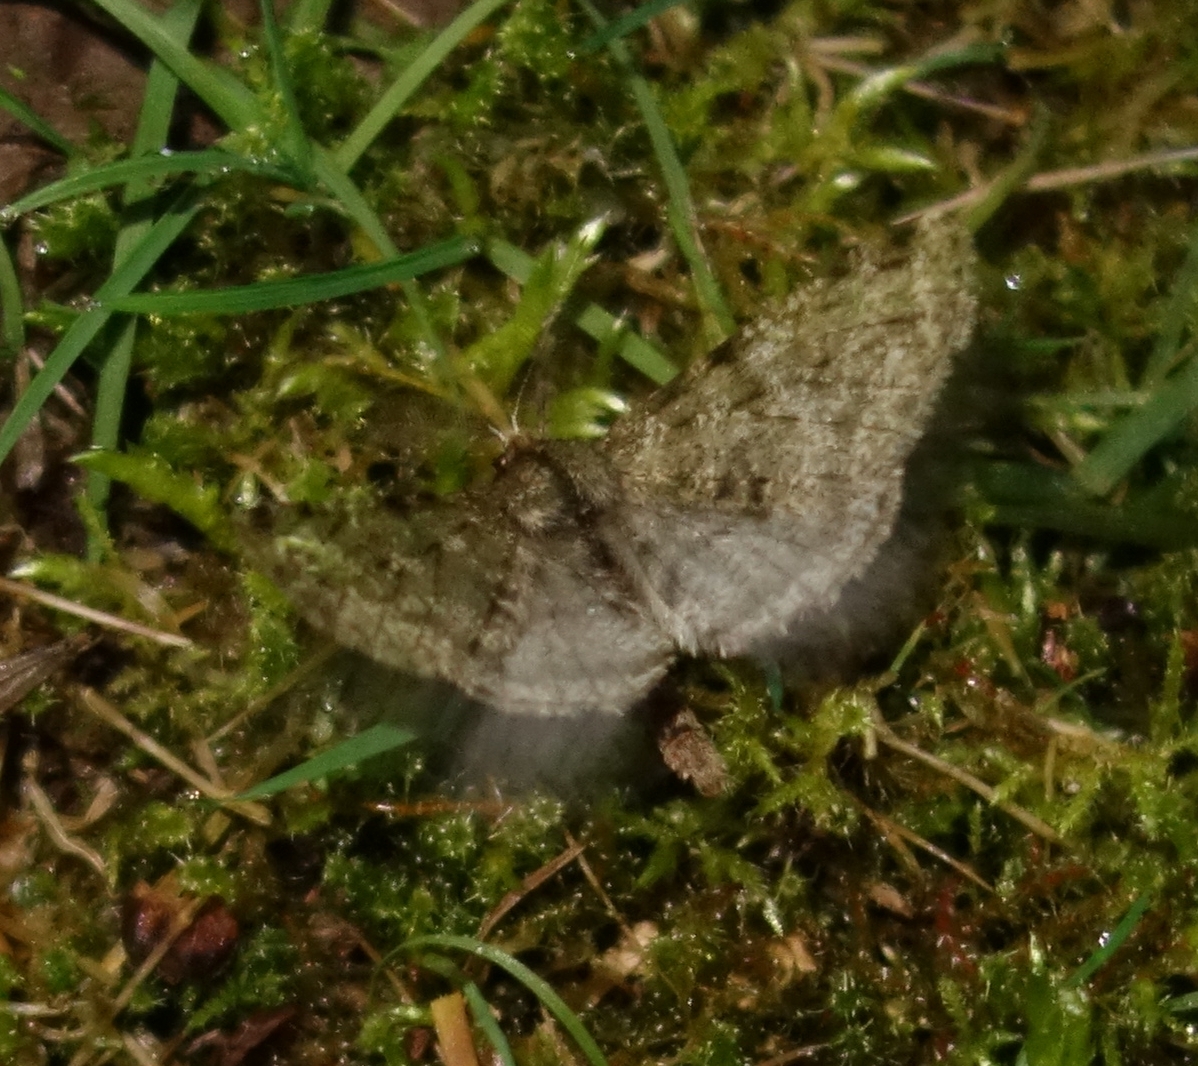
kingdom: Animalia
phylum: Arthropoda
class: Insecta
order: Lepidoptera
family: Geometridae
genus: Phigalia
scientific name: Phigalia pilosaria
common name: Pale brindled beauty
